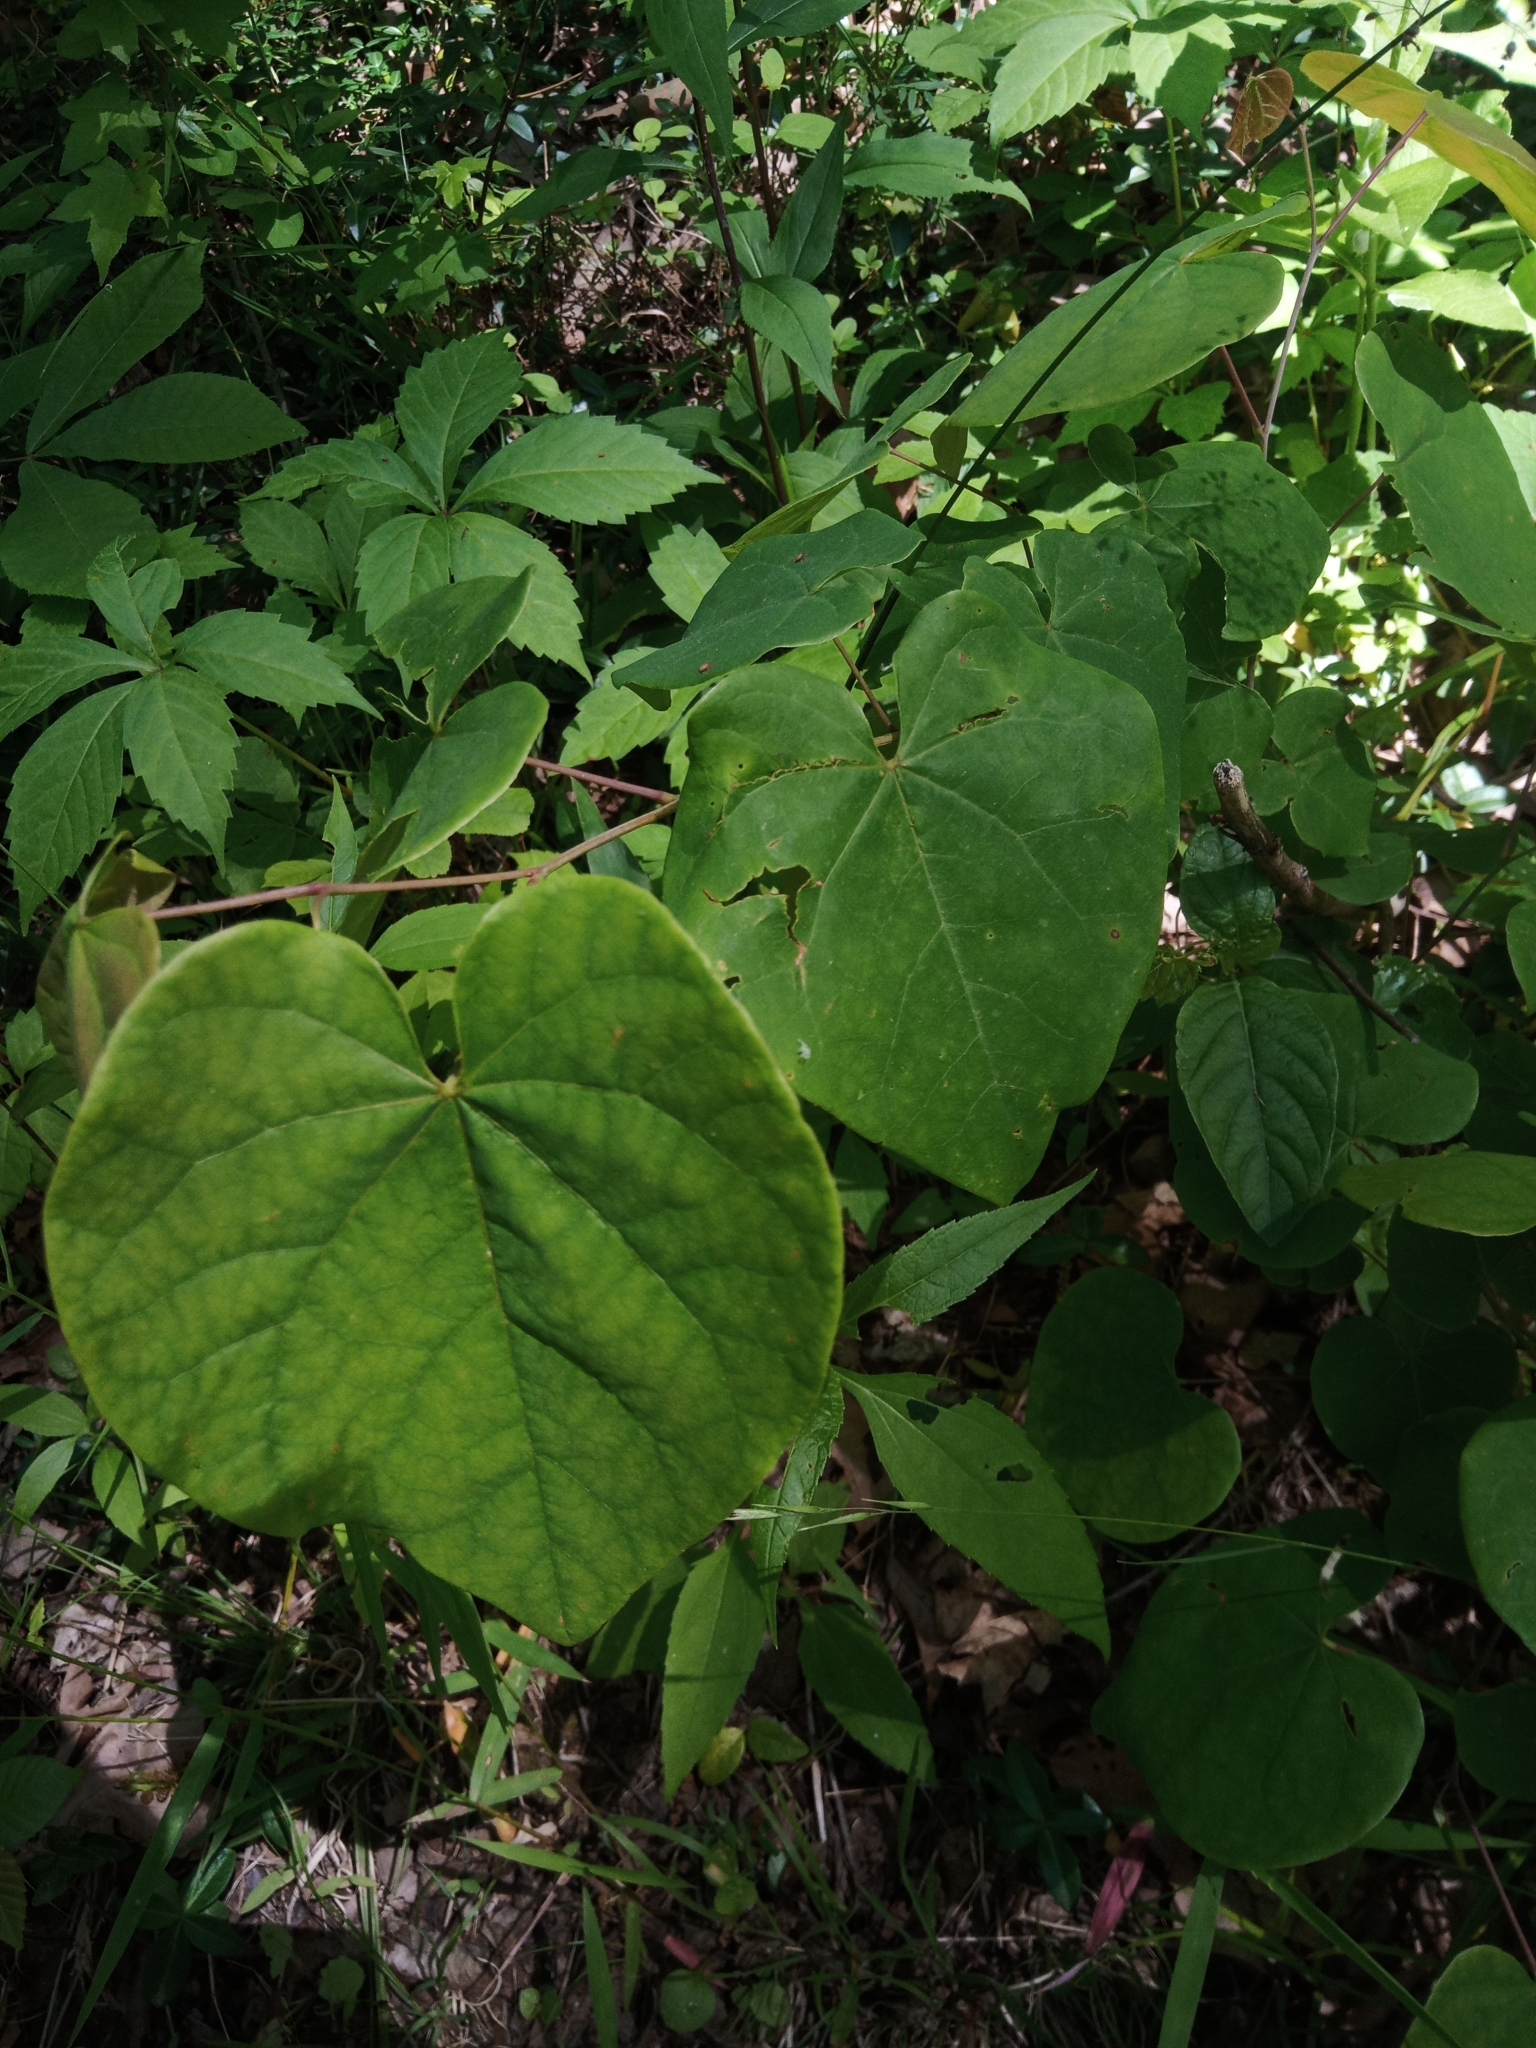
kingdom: Plantae
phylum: Tracheophyta
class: Magnoliopsida
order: Fabales
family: Fabaceae
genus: Cercis
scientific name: Cercis canadensis
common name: Eastern redbud
